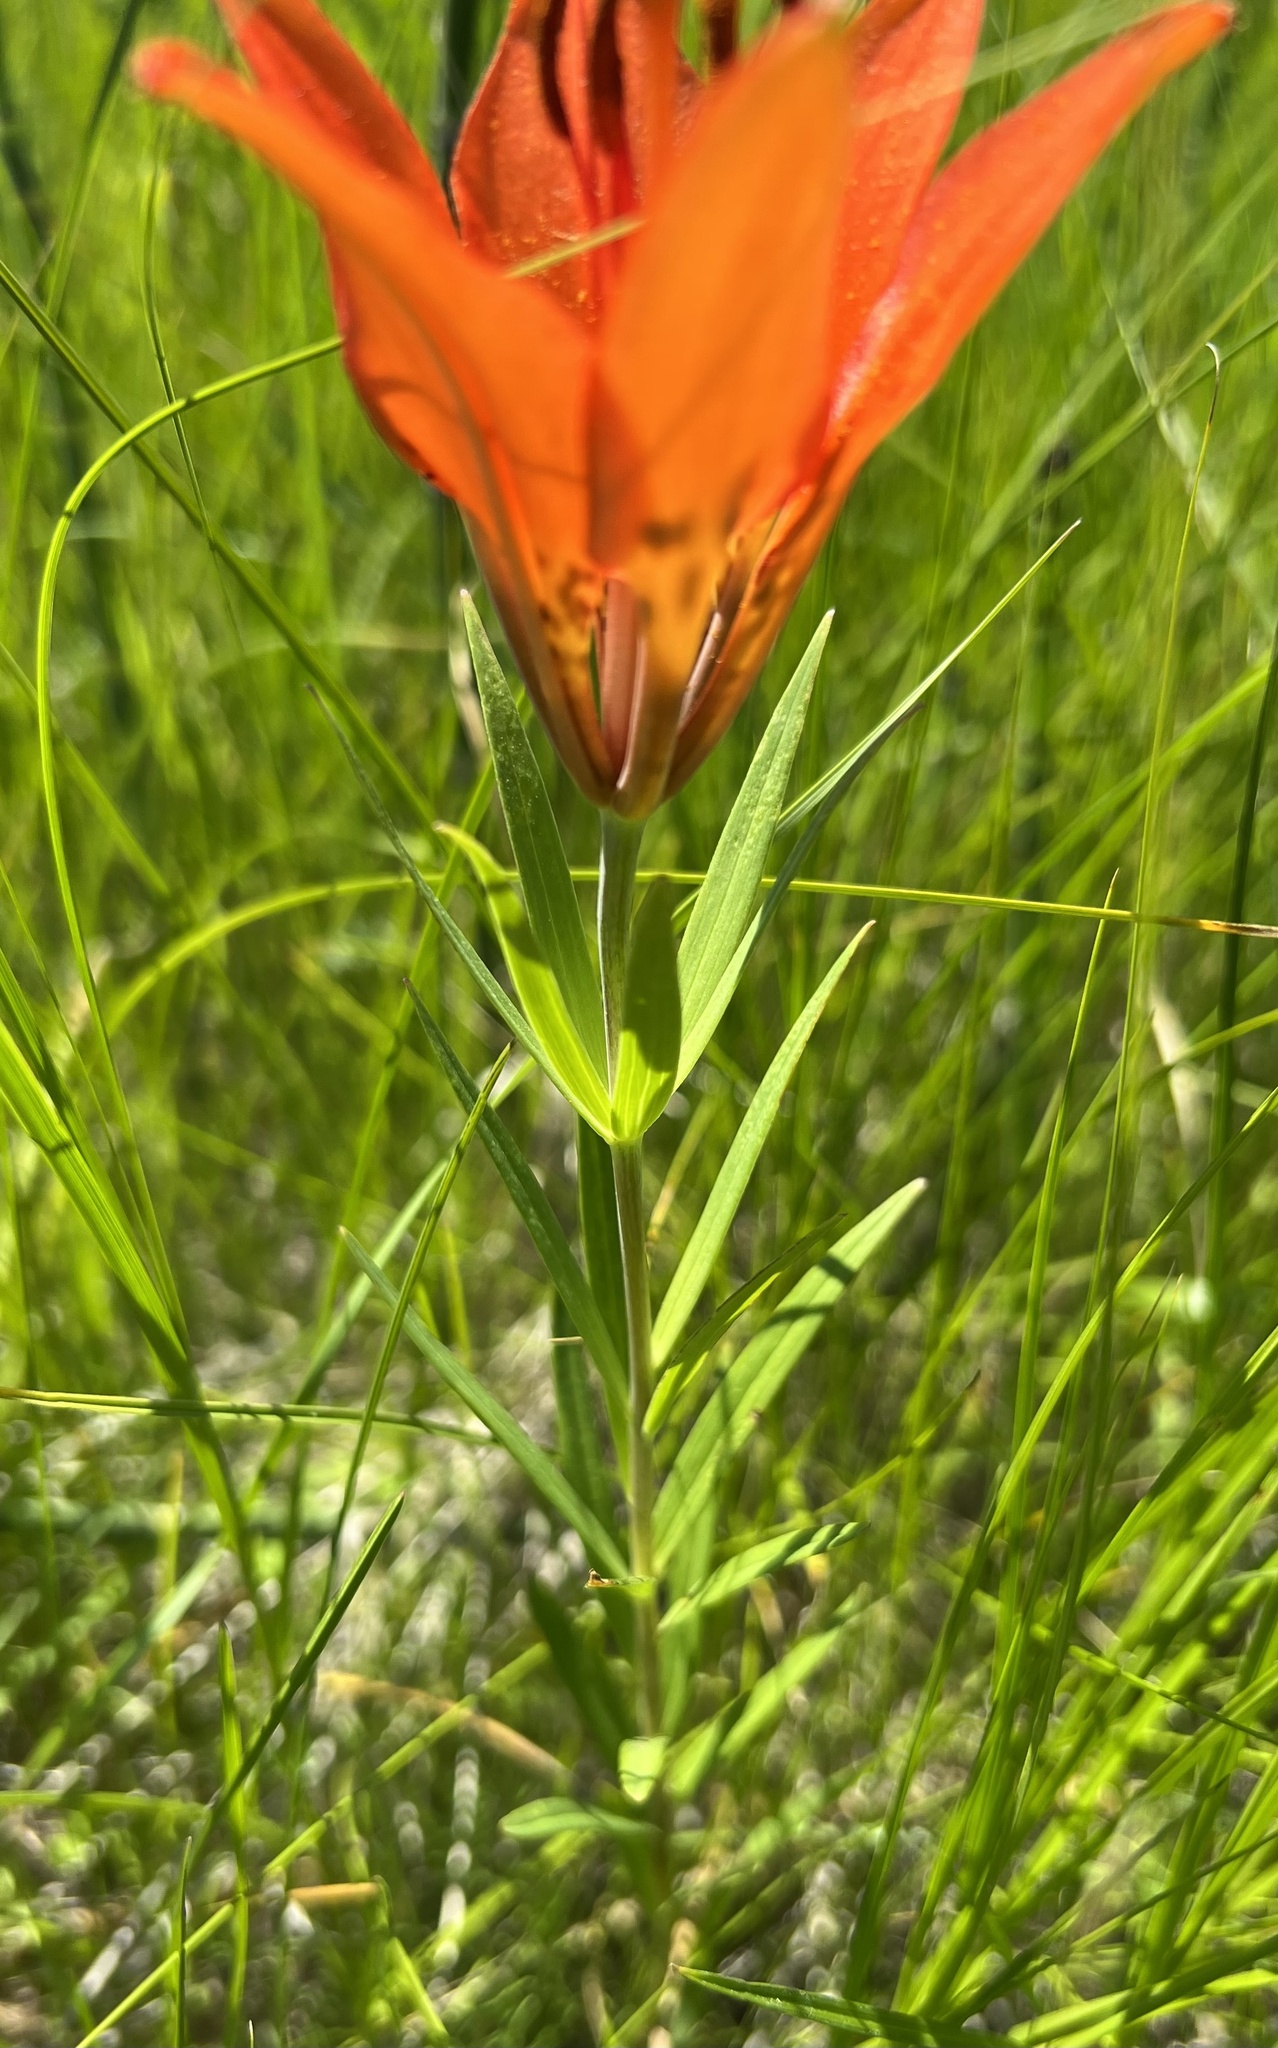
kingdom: Plantae
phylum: Tracheophyta
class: Liliopsida
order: Liliales
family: Liliaceae
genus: Lilium
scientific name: Lilium philadelphicum
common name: Red lily
